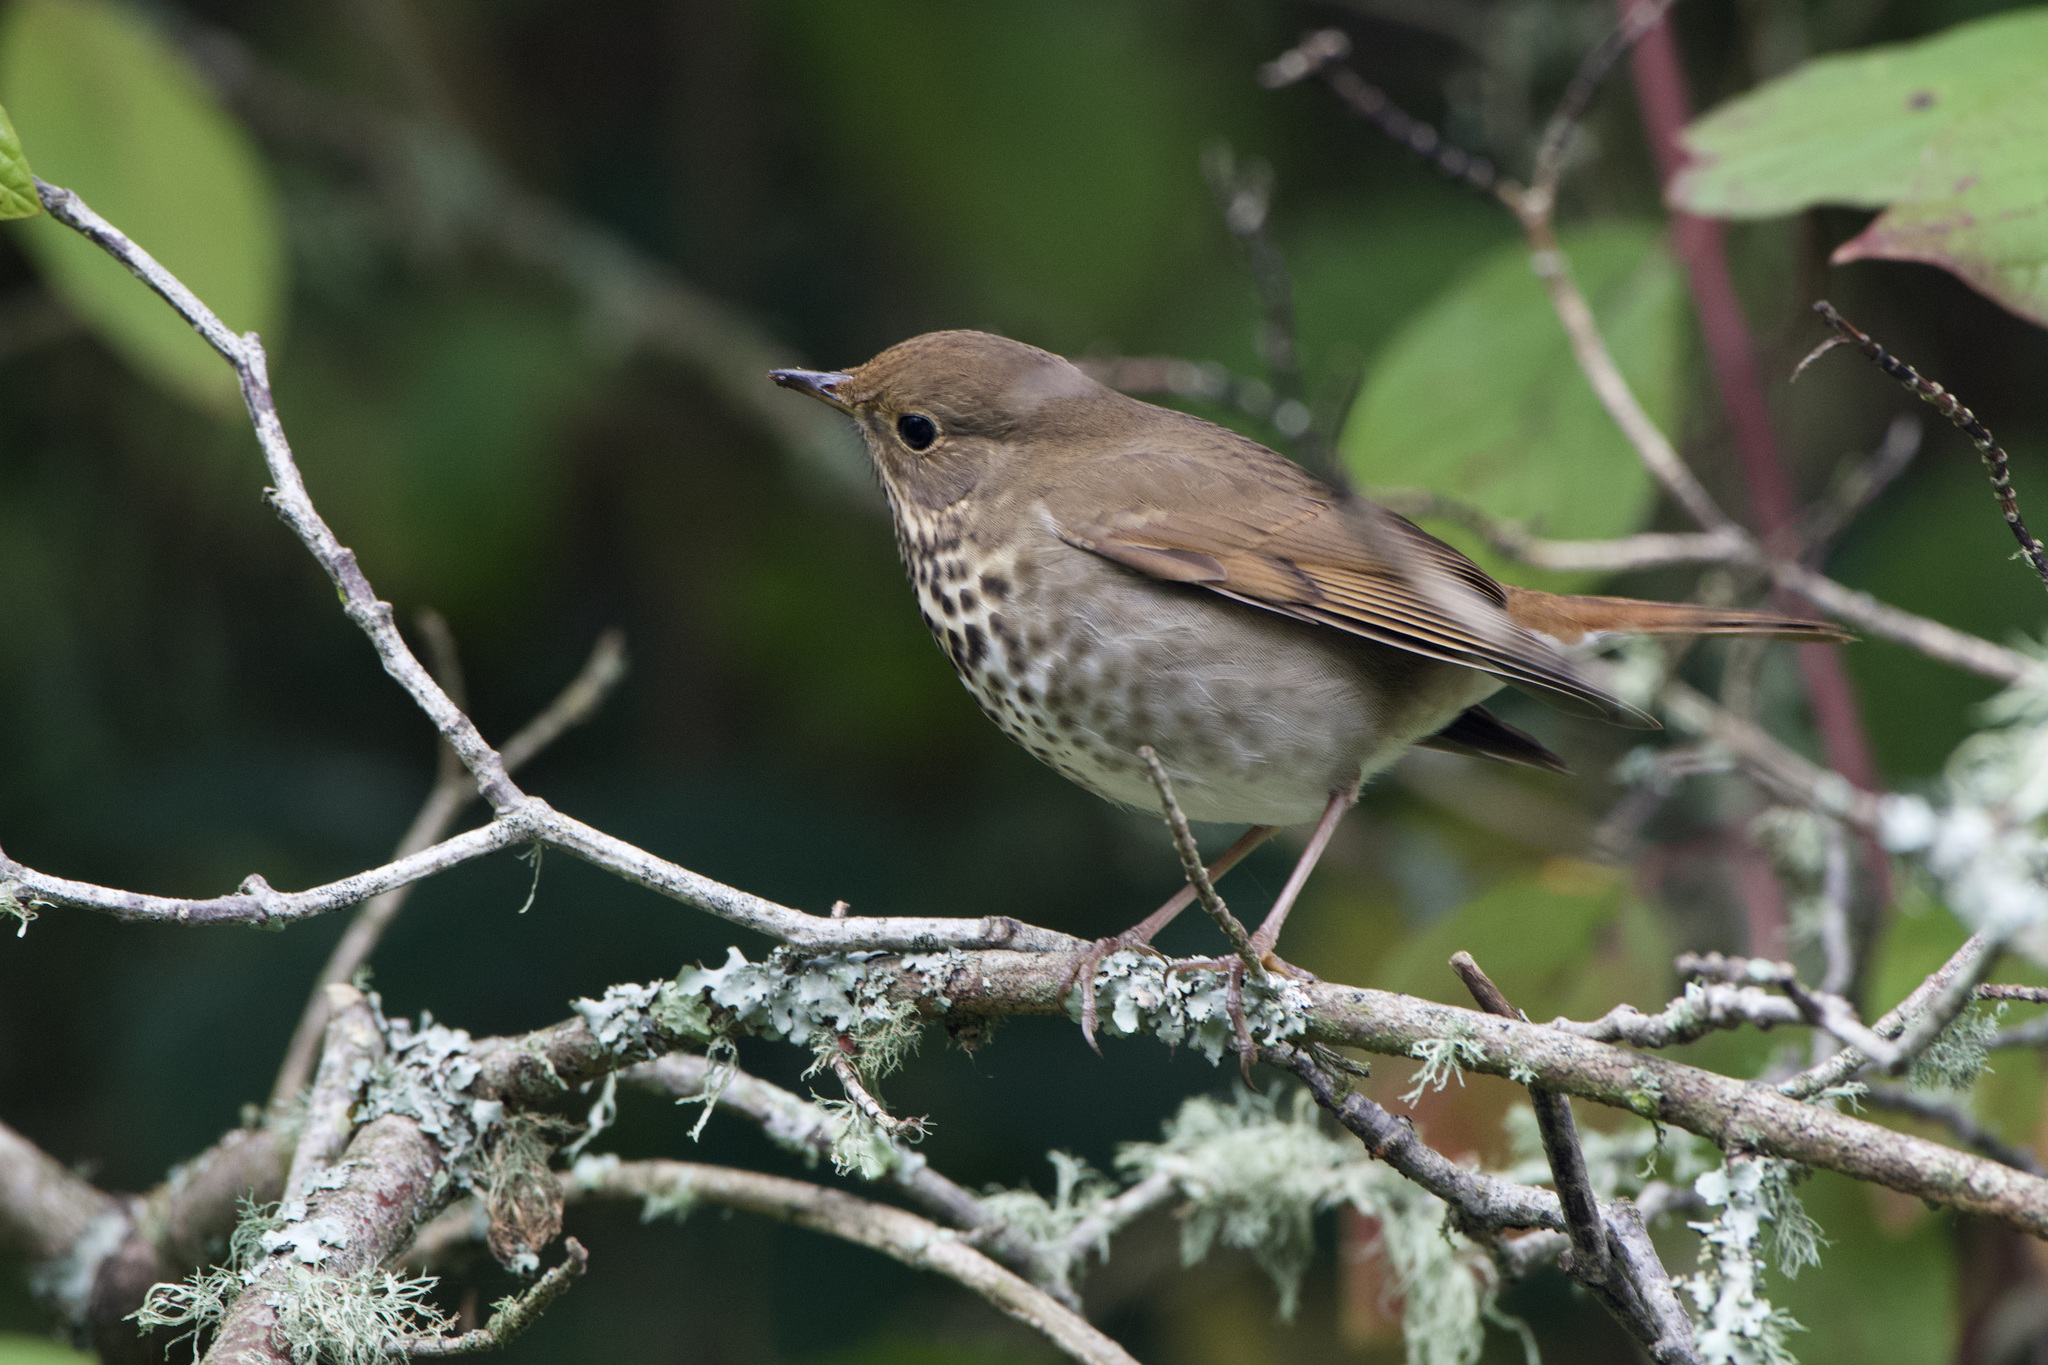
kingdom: Animalia
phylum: Chordata
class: Aves
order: Passeriformes
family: Turdidae
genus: Catharus
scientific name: Catharus guttatus
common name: Hermit thrush
